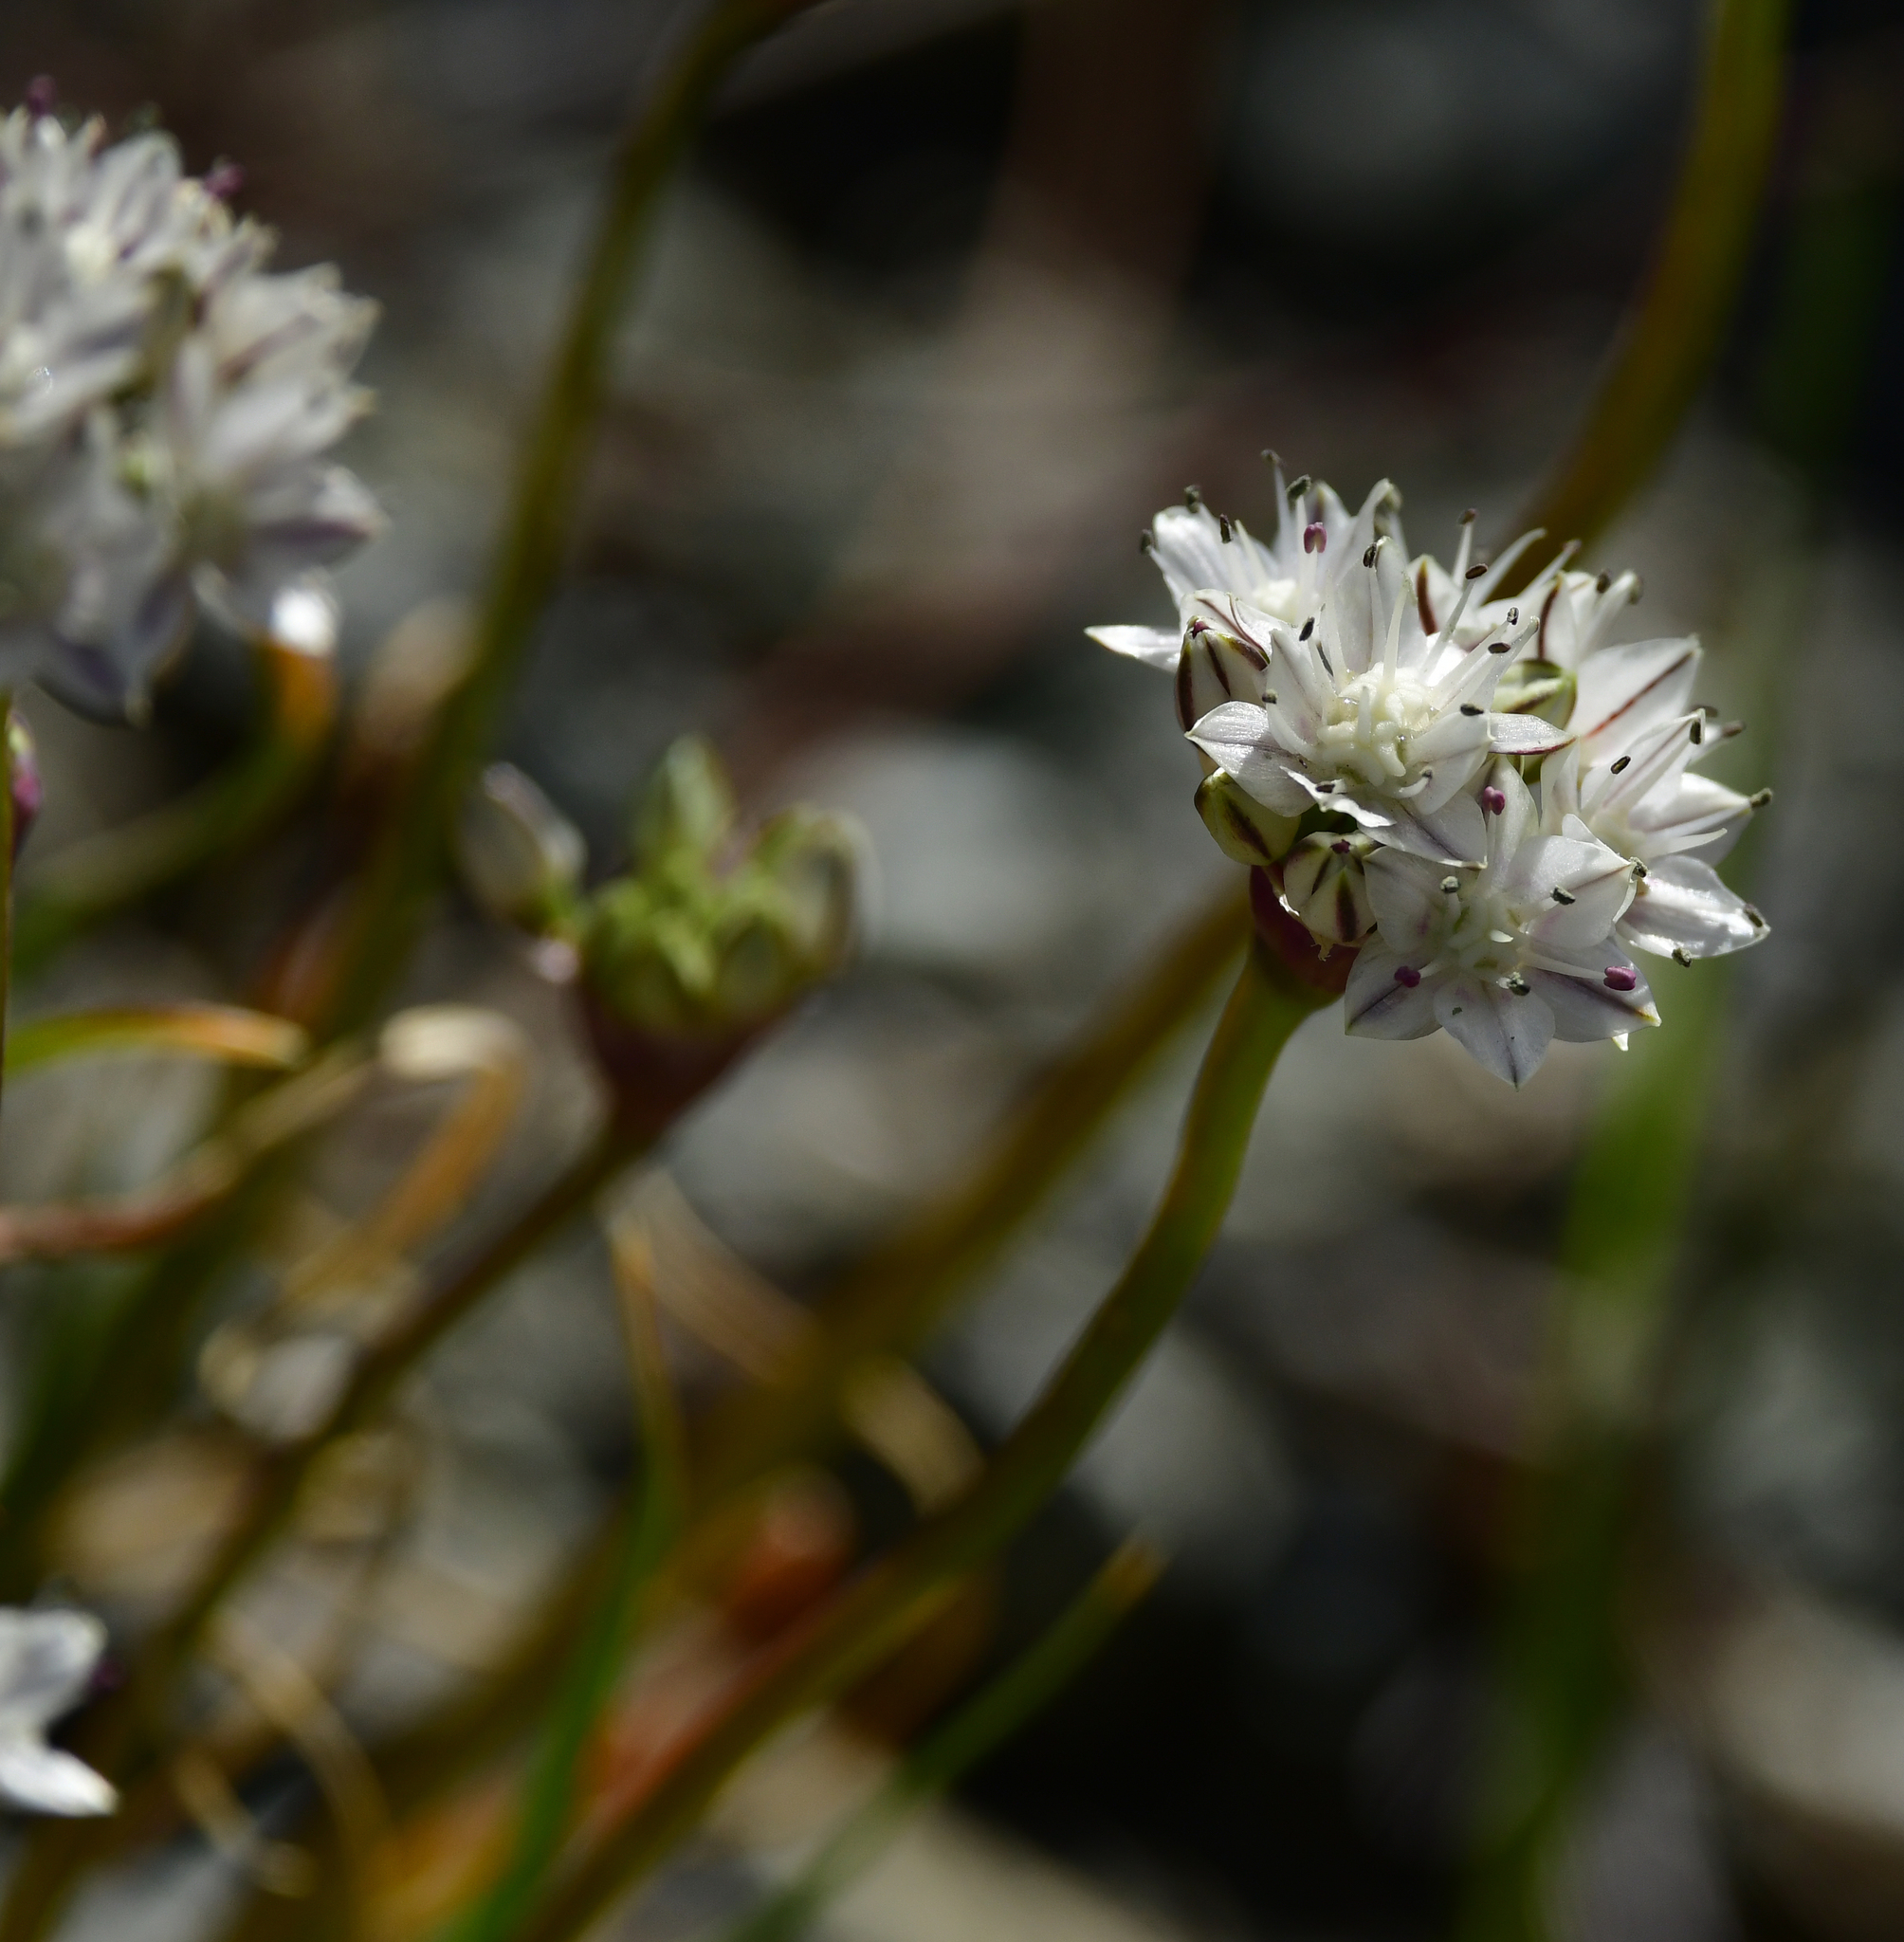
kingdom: Plantae
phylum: Tracheophyta
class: Liliopsida
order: Asparagales
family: Amaryllidaceae
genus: Allium
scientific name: Allium haematochiton
